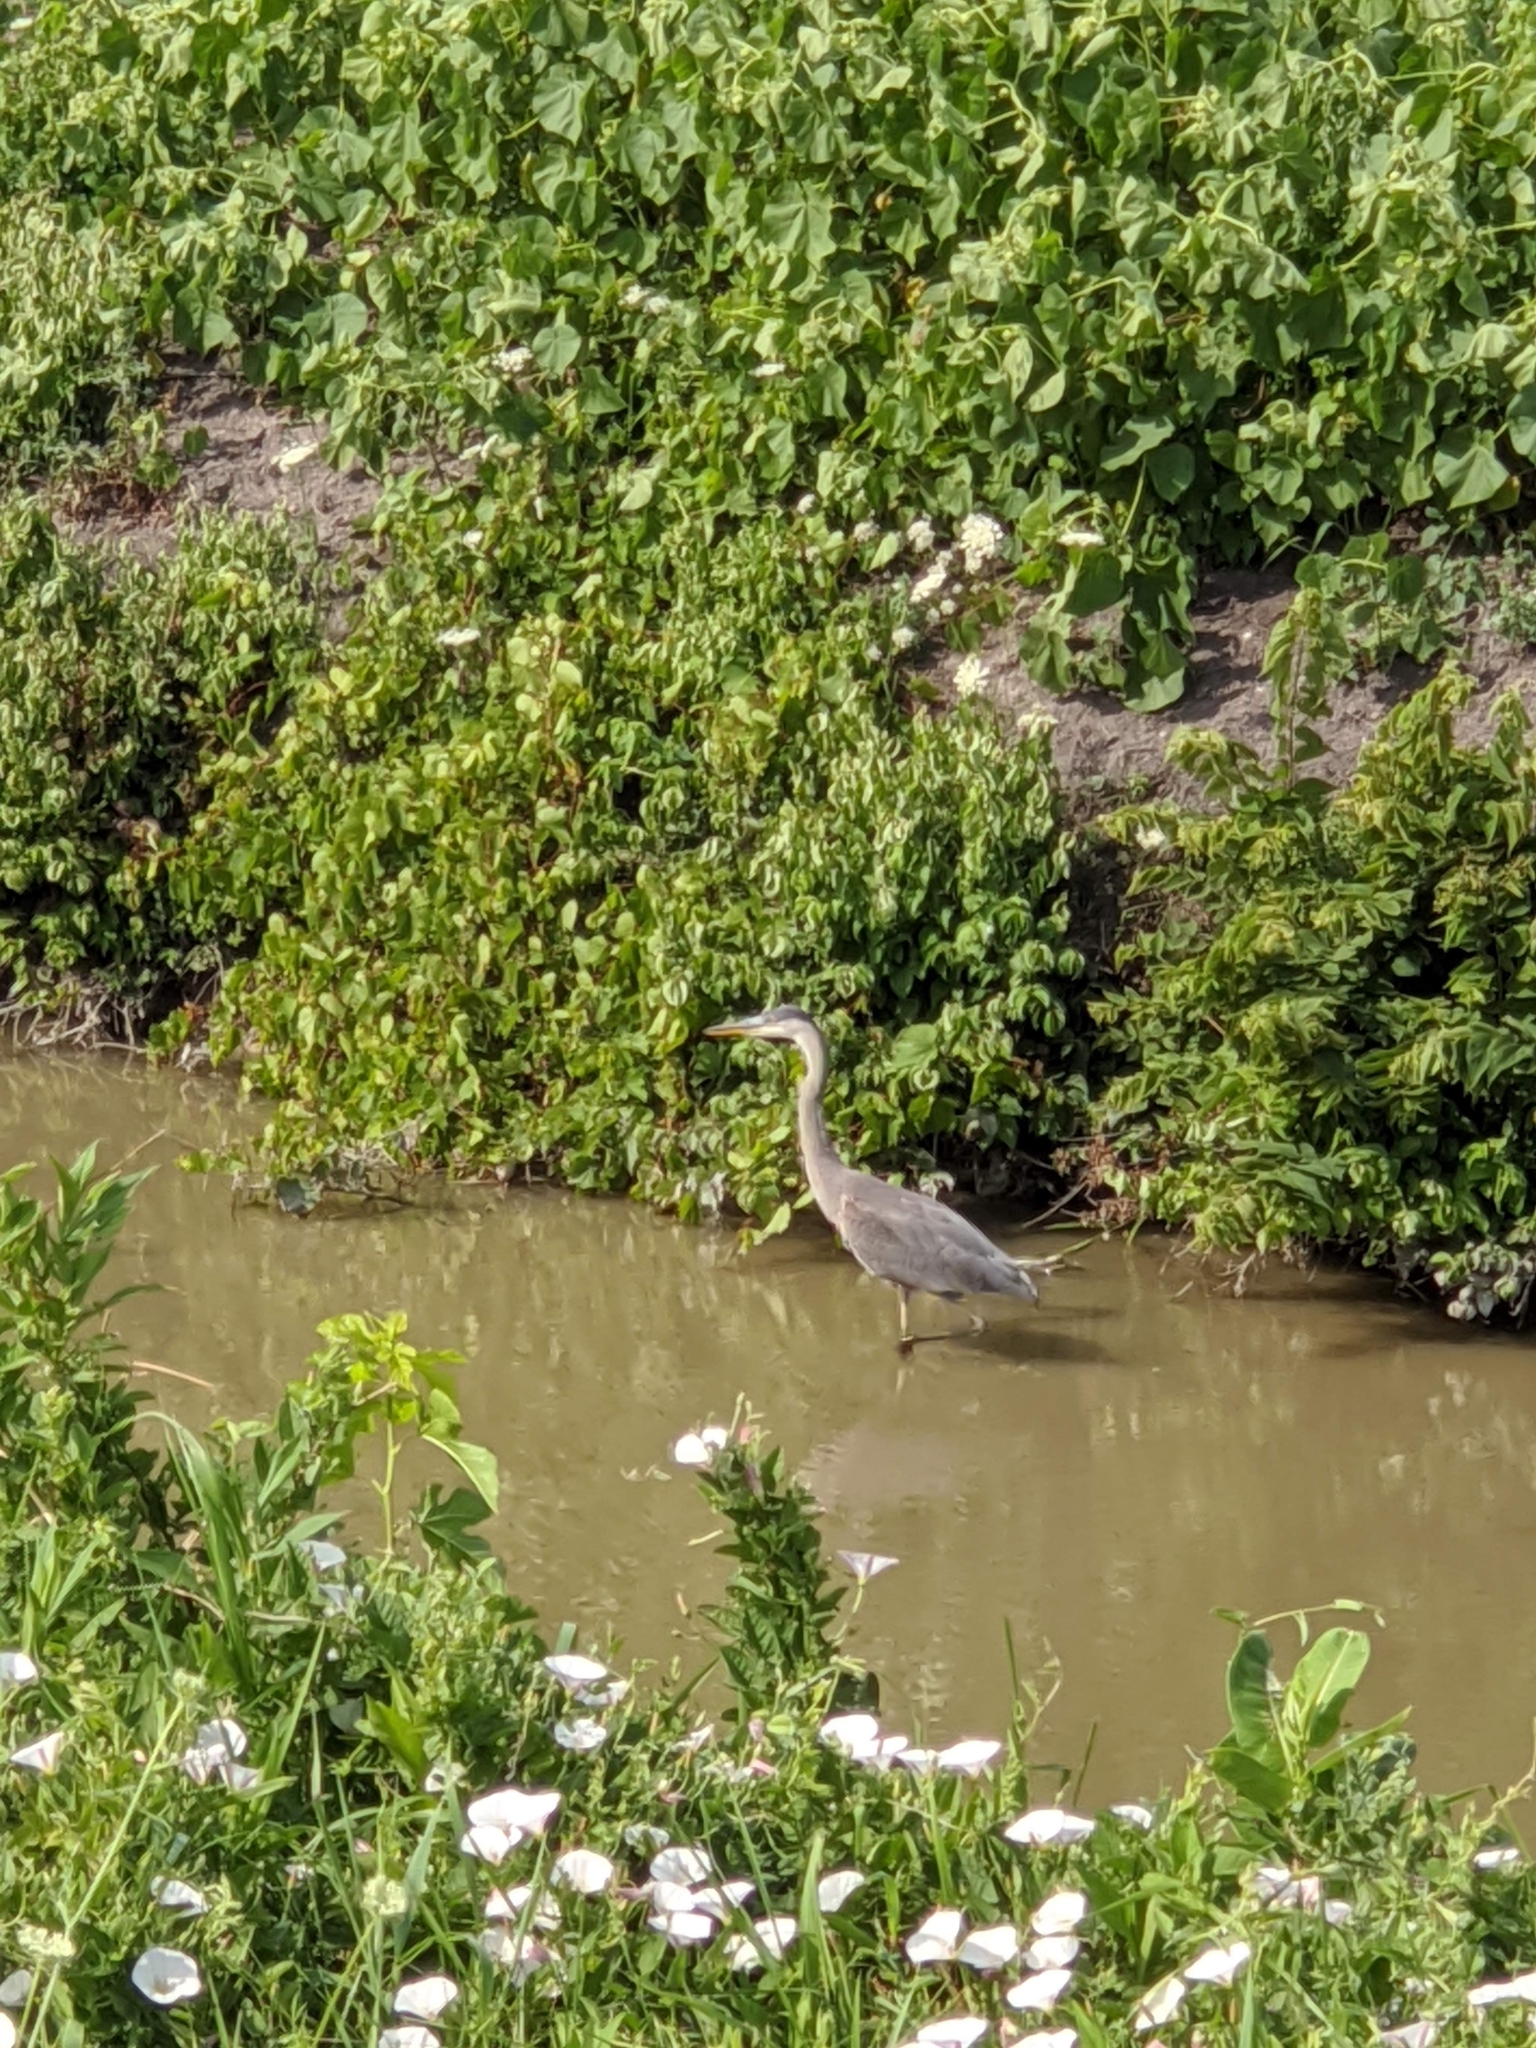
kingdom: Animalia
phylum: Chordata
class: Aves
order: Pelecaniformes
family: Ardeidae
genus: Ardea
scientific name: Ardea herodias
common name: Great blue heron
